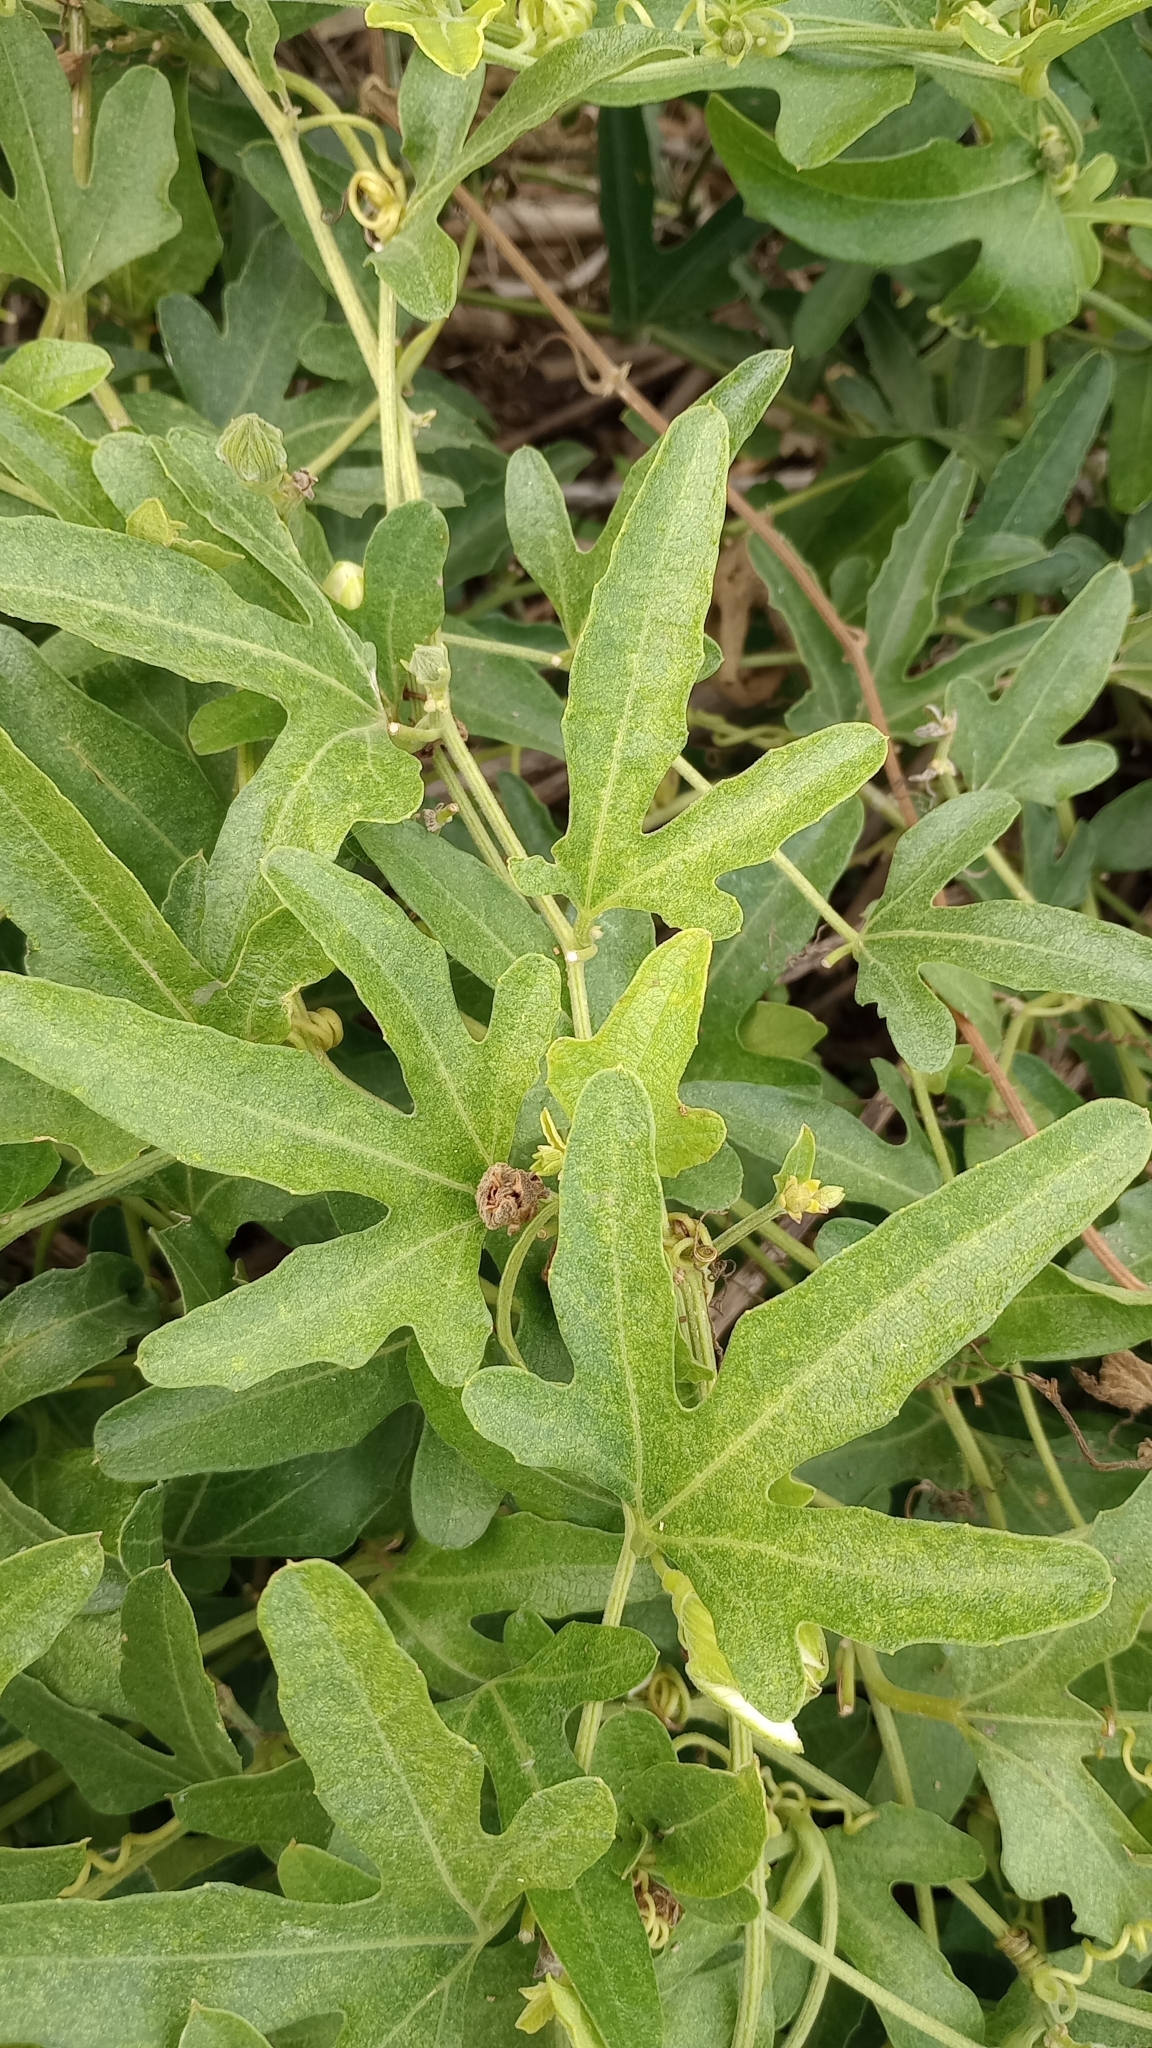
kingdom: Plantae
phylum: Tracheophyta
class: Magnoliopsida
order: Cucurbitales
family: Cucurbitaceae
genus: Cayaponia
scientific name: Cayaponia podantha
